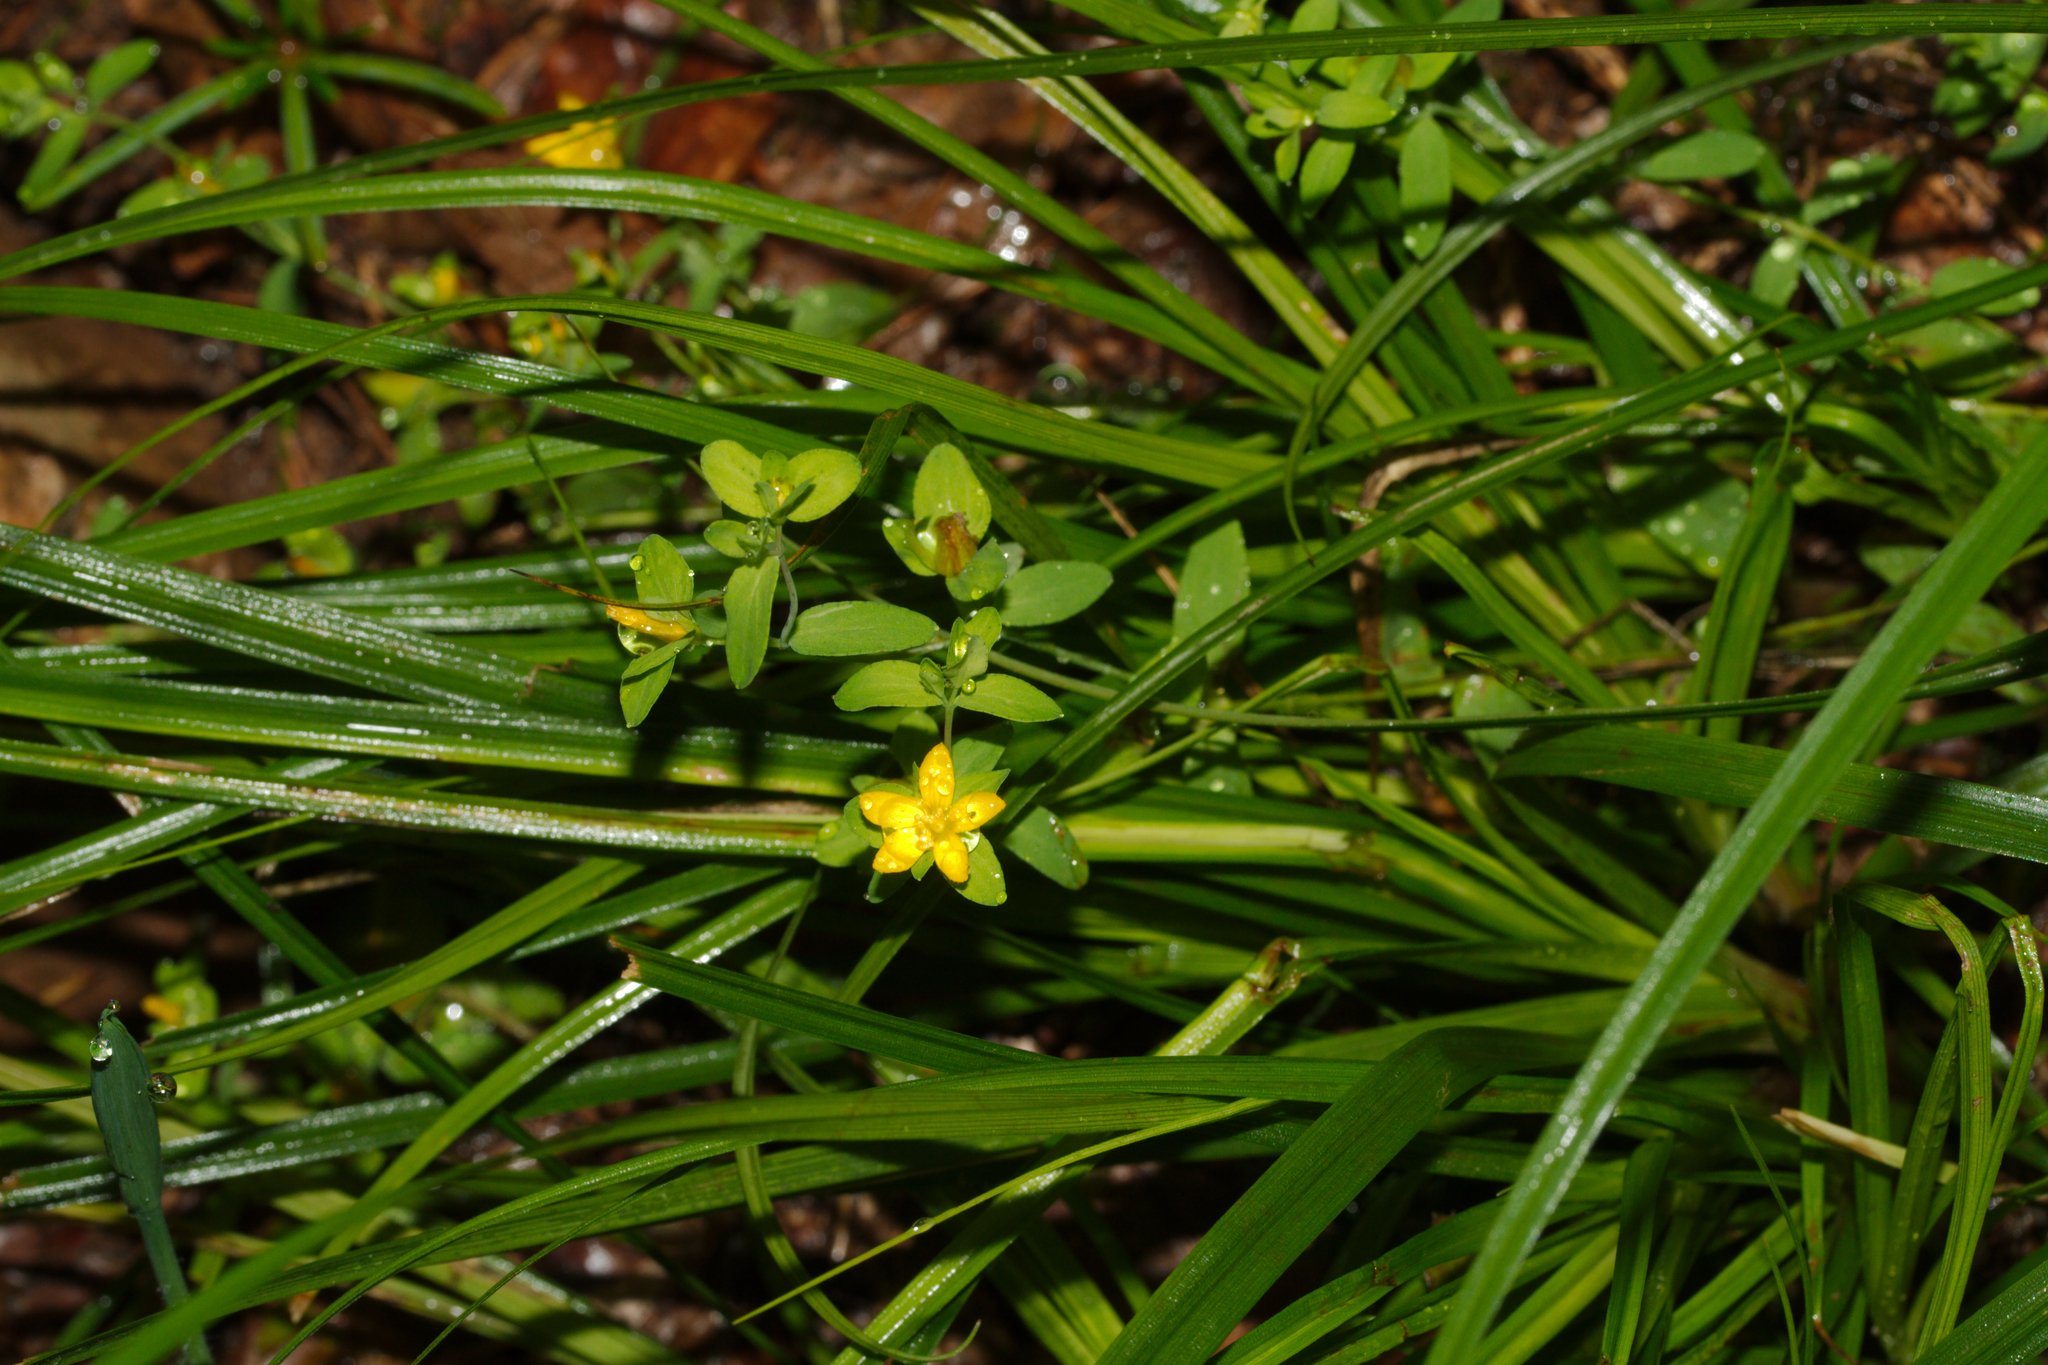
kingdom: Plantae
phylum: Tracheophyta
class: Magnoliopsida
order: Malpighiales
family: Hypericaceae
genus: Hypericum
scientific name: Hypericum humifusum
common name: Trailing st. john's-wort
